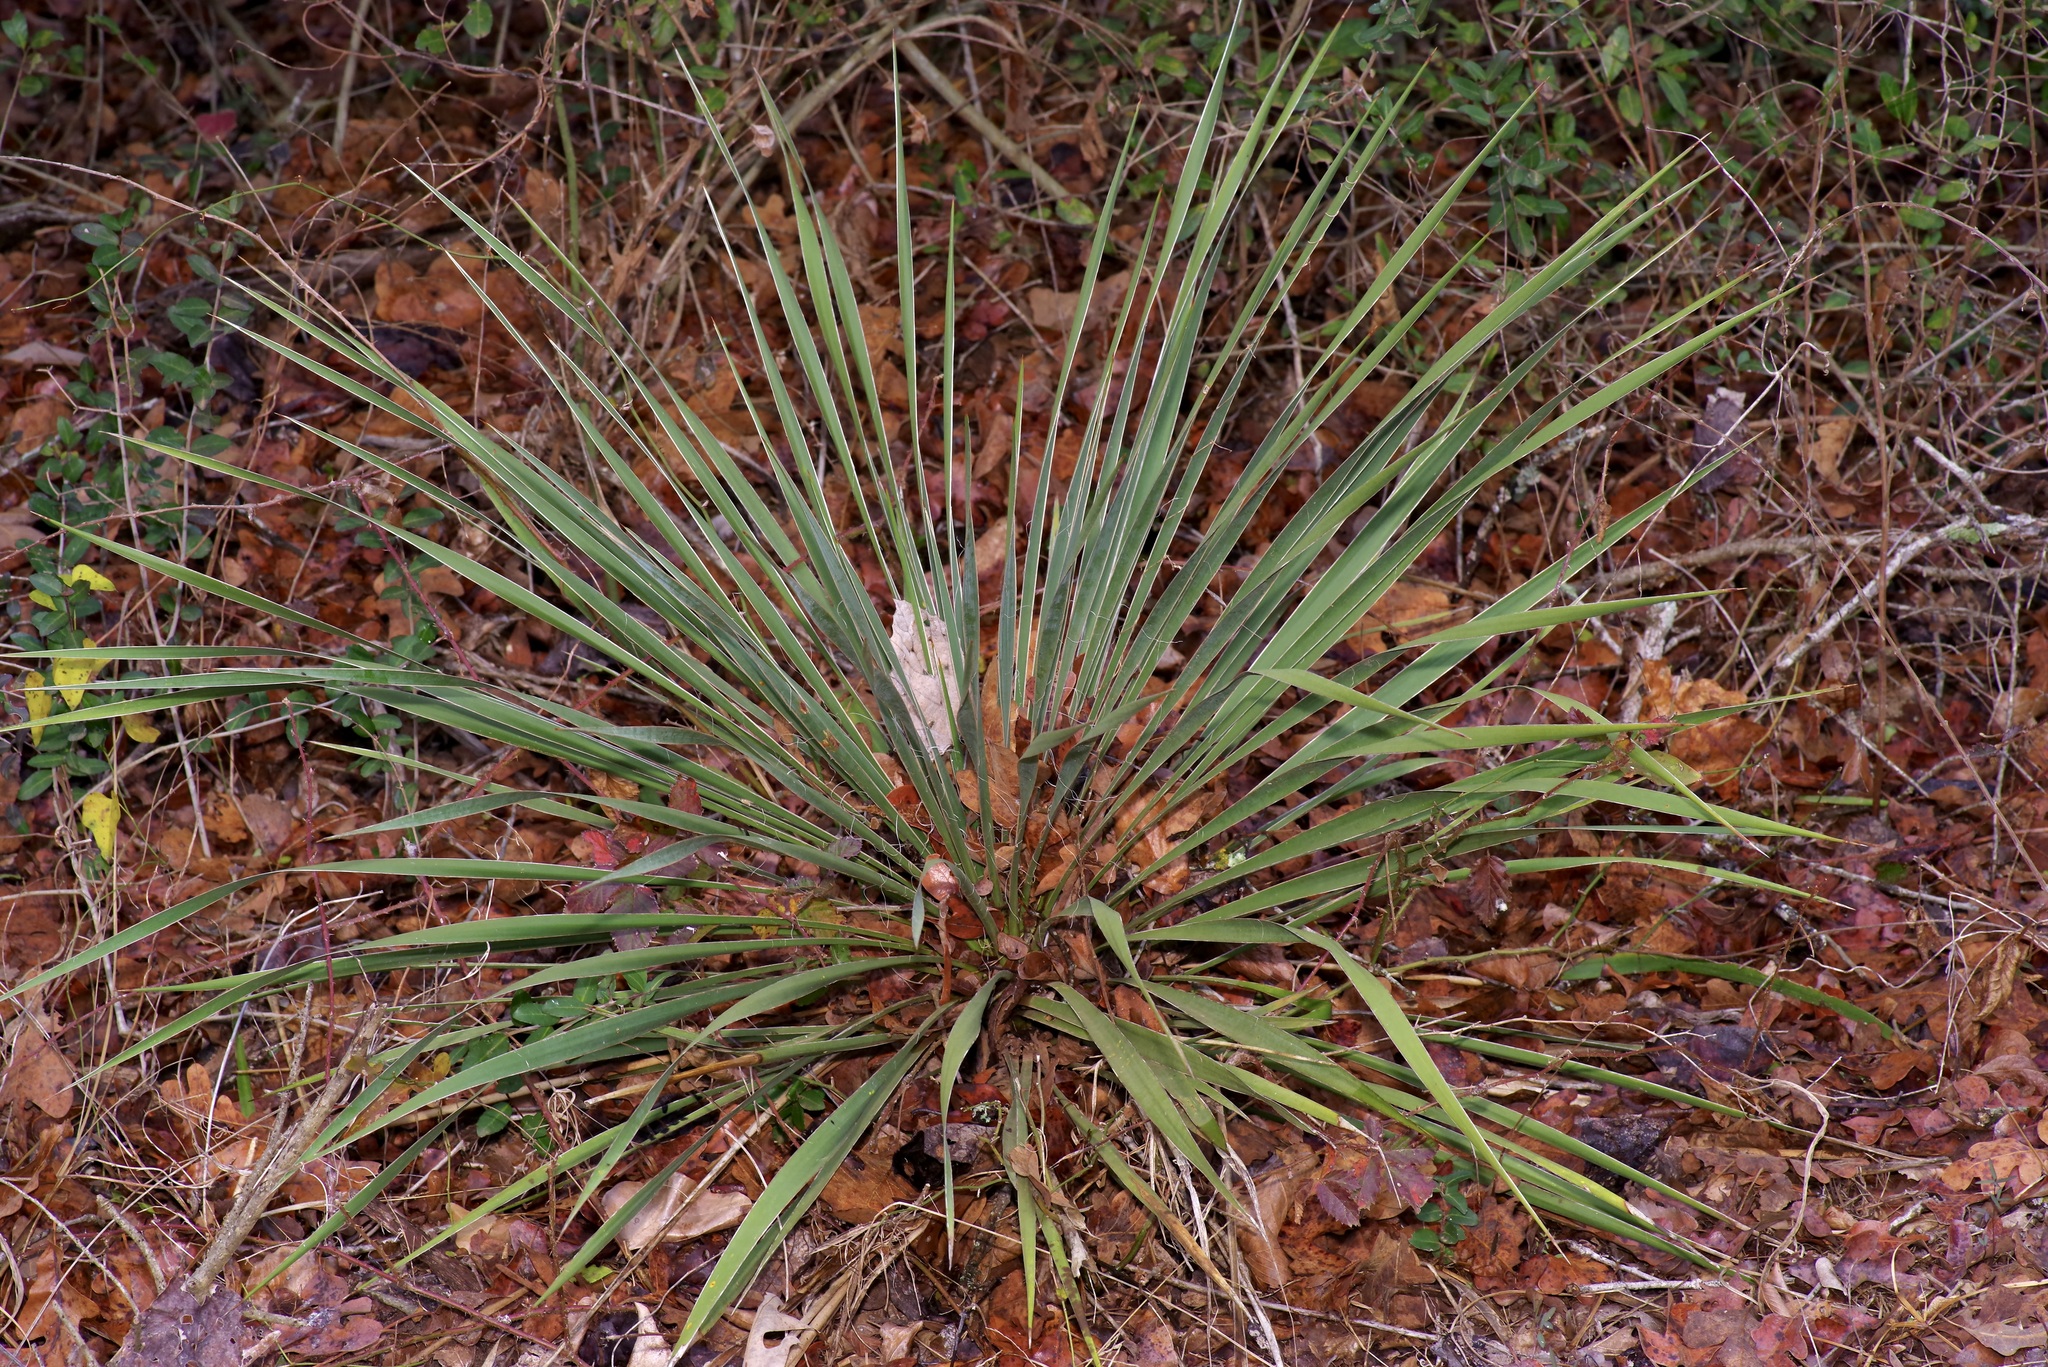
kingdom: Plantae
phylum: Tracheophyta
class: Liliopsida
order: Asparagales
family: Asparagaceae
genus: Yucca
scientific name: Yucca flaccida
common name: Adam's-needle
